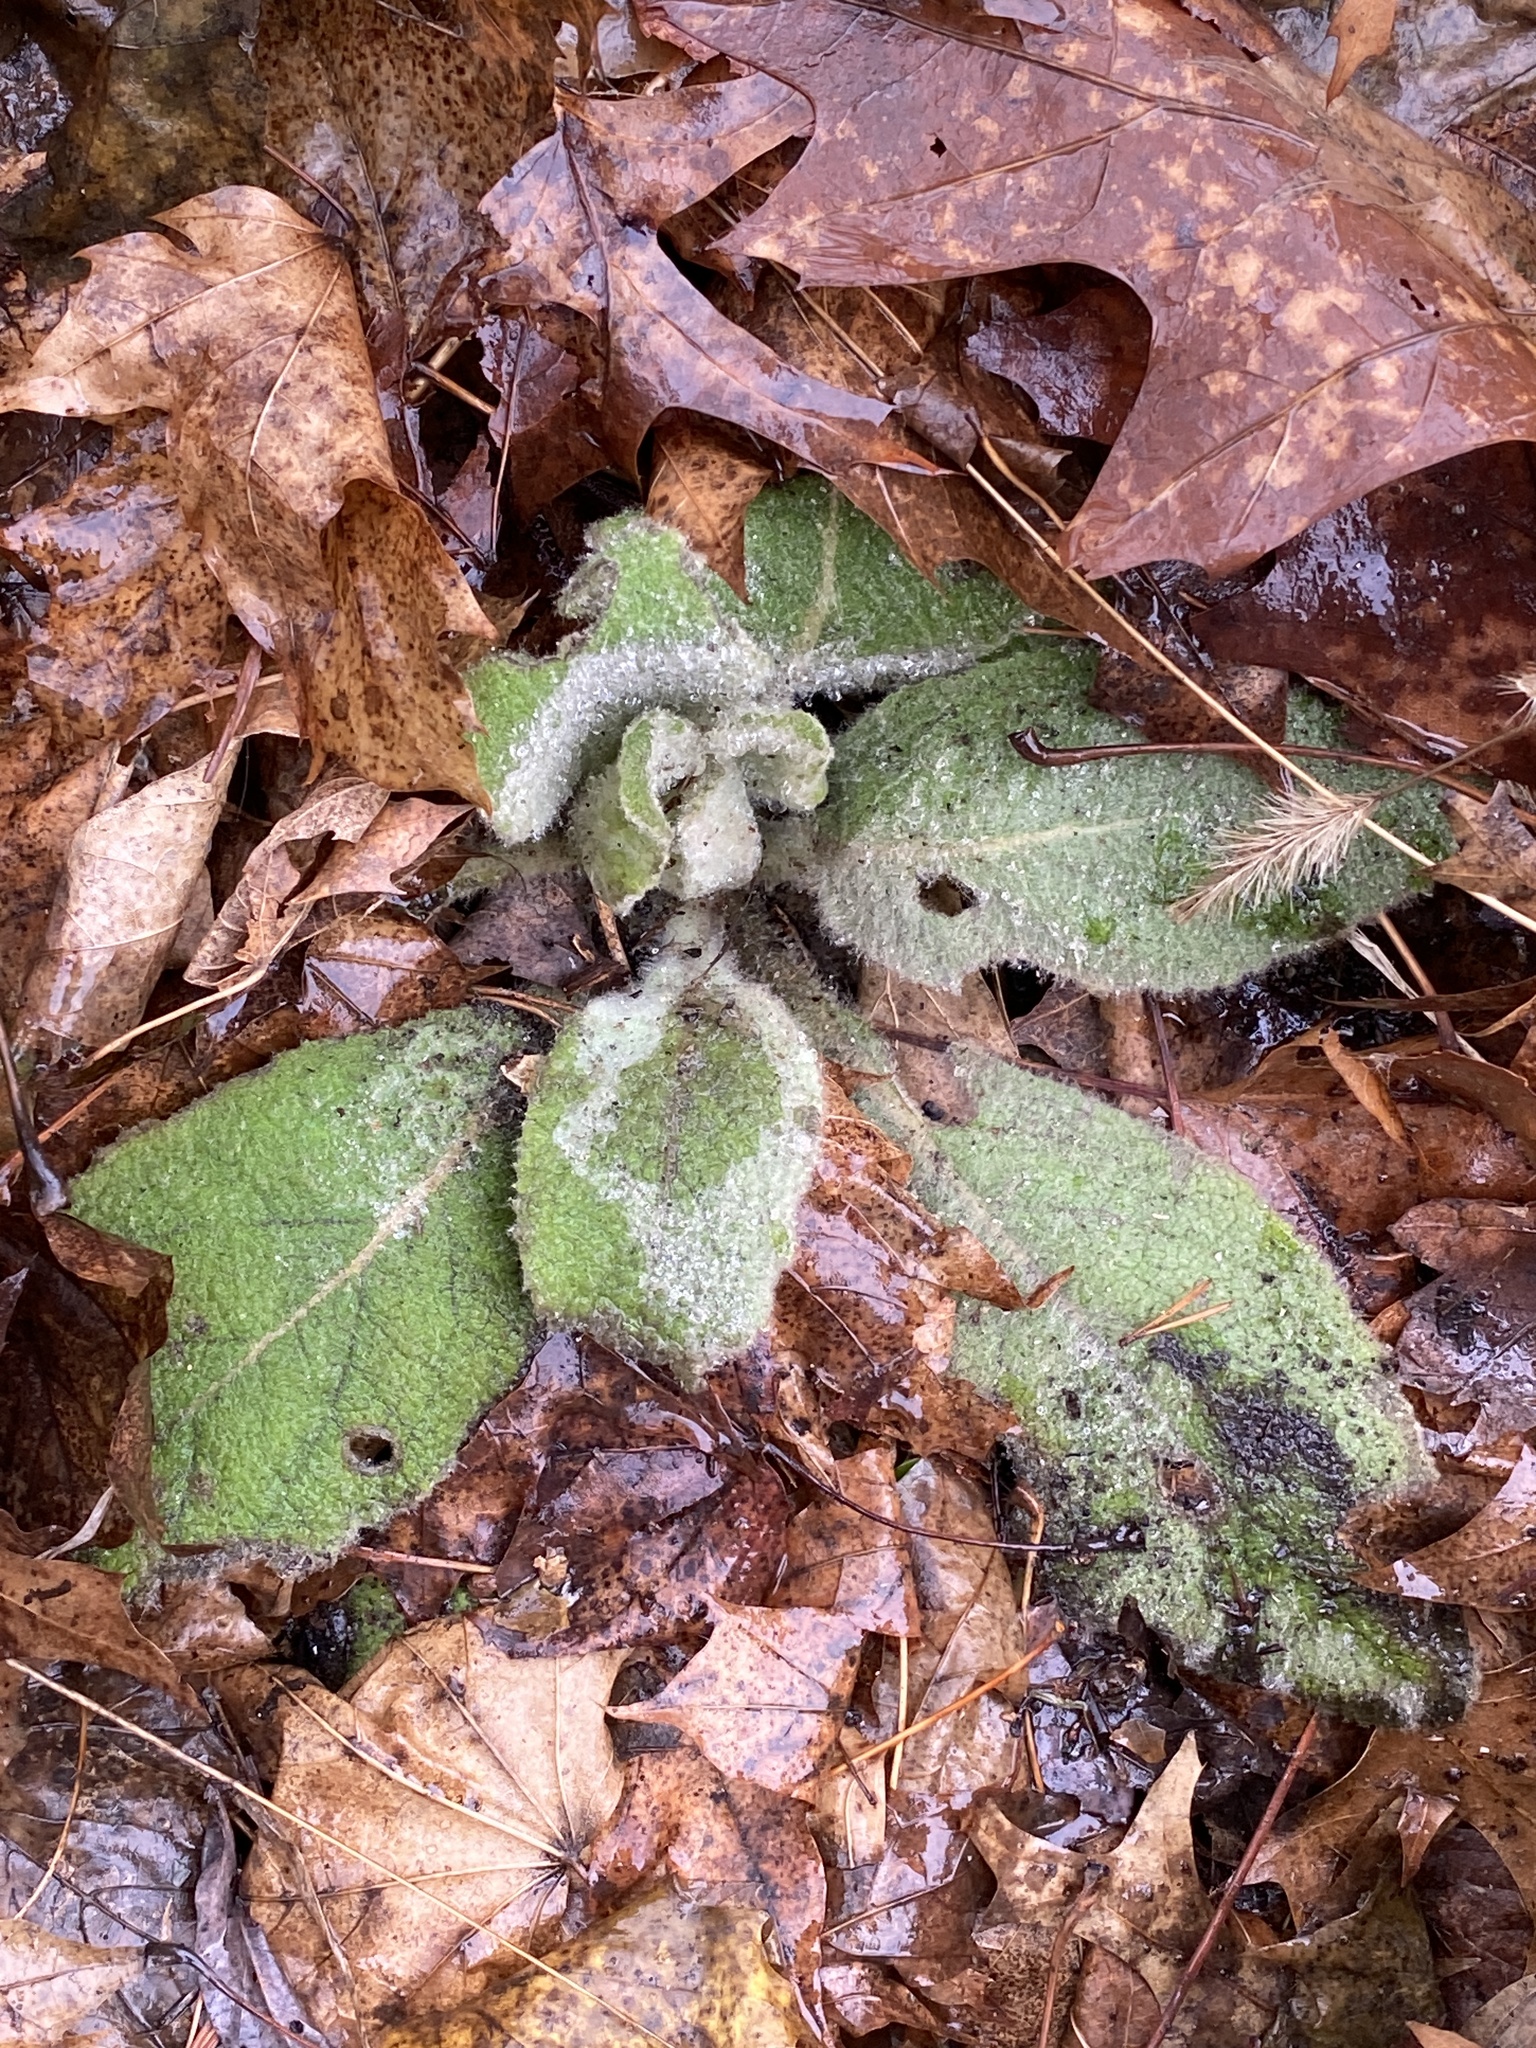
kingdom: Plantae
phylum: Tracheophyta
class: Magnoliopsida
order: Lamiales
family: Scrophulariaceae
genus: Verbascum
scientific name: Verbascum thapsus
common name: Common mullein
